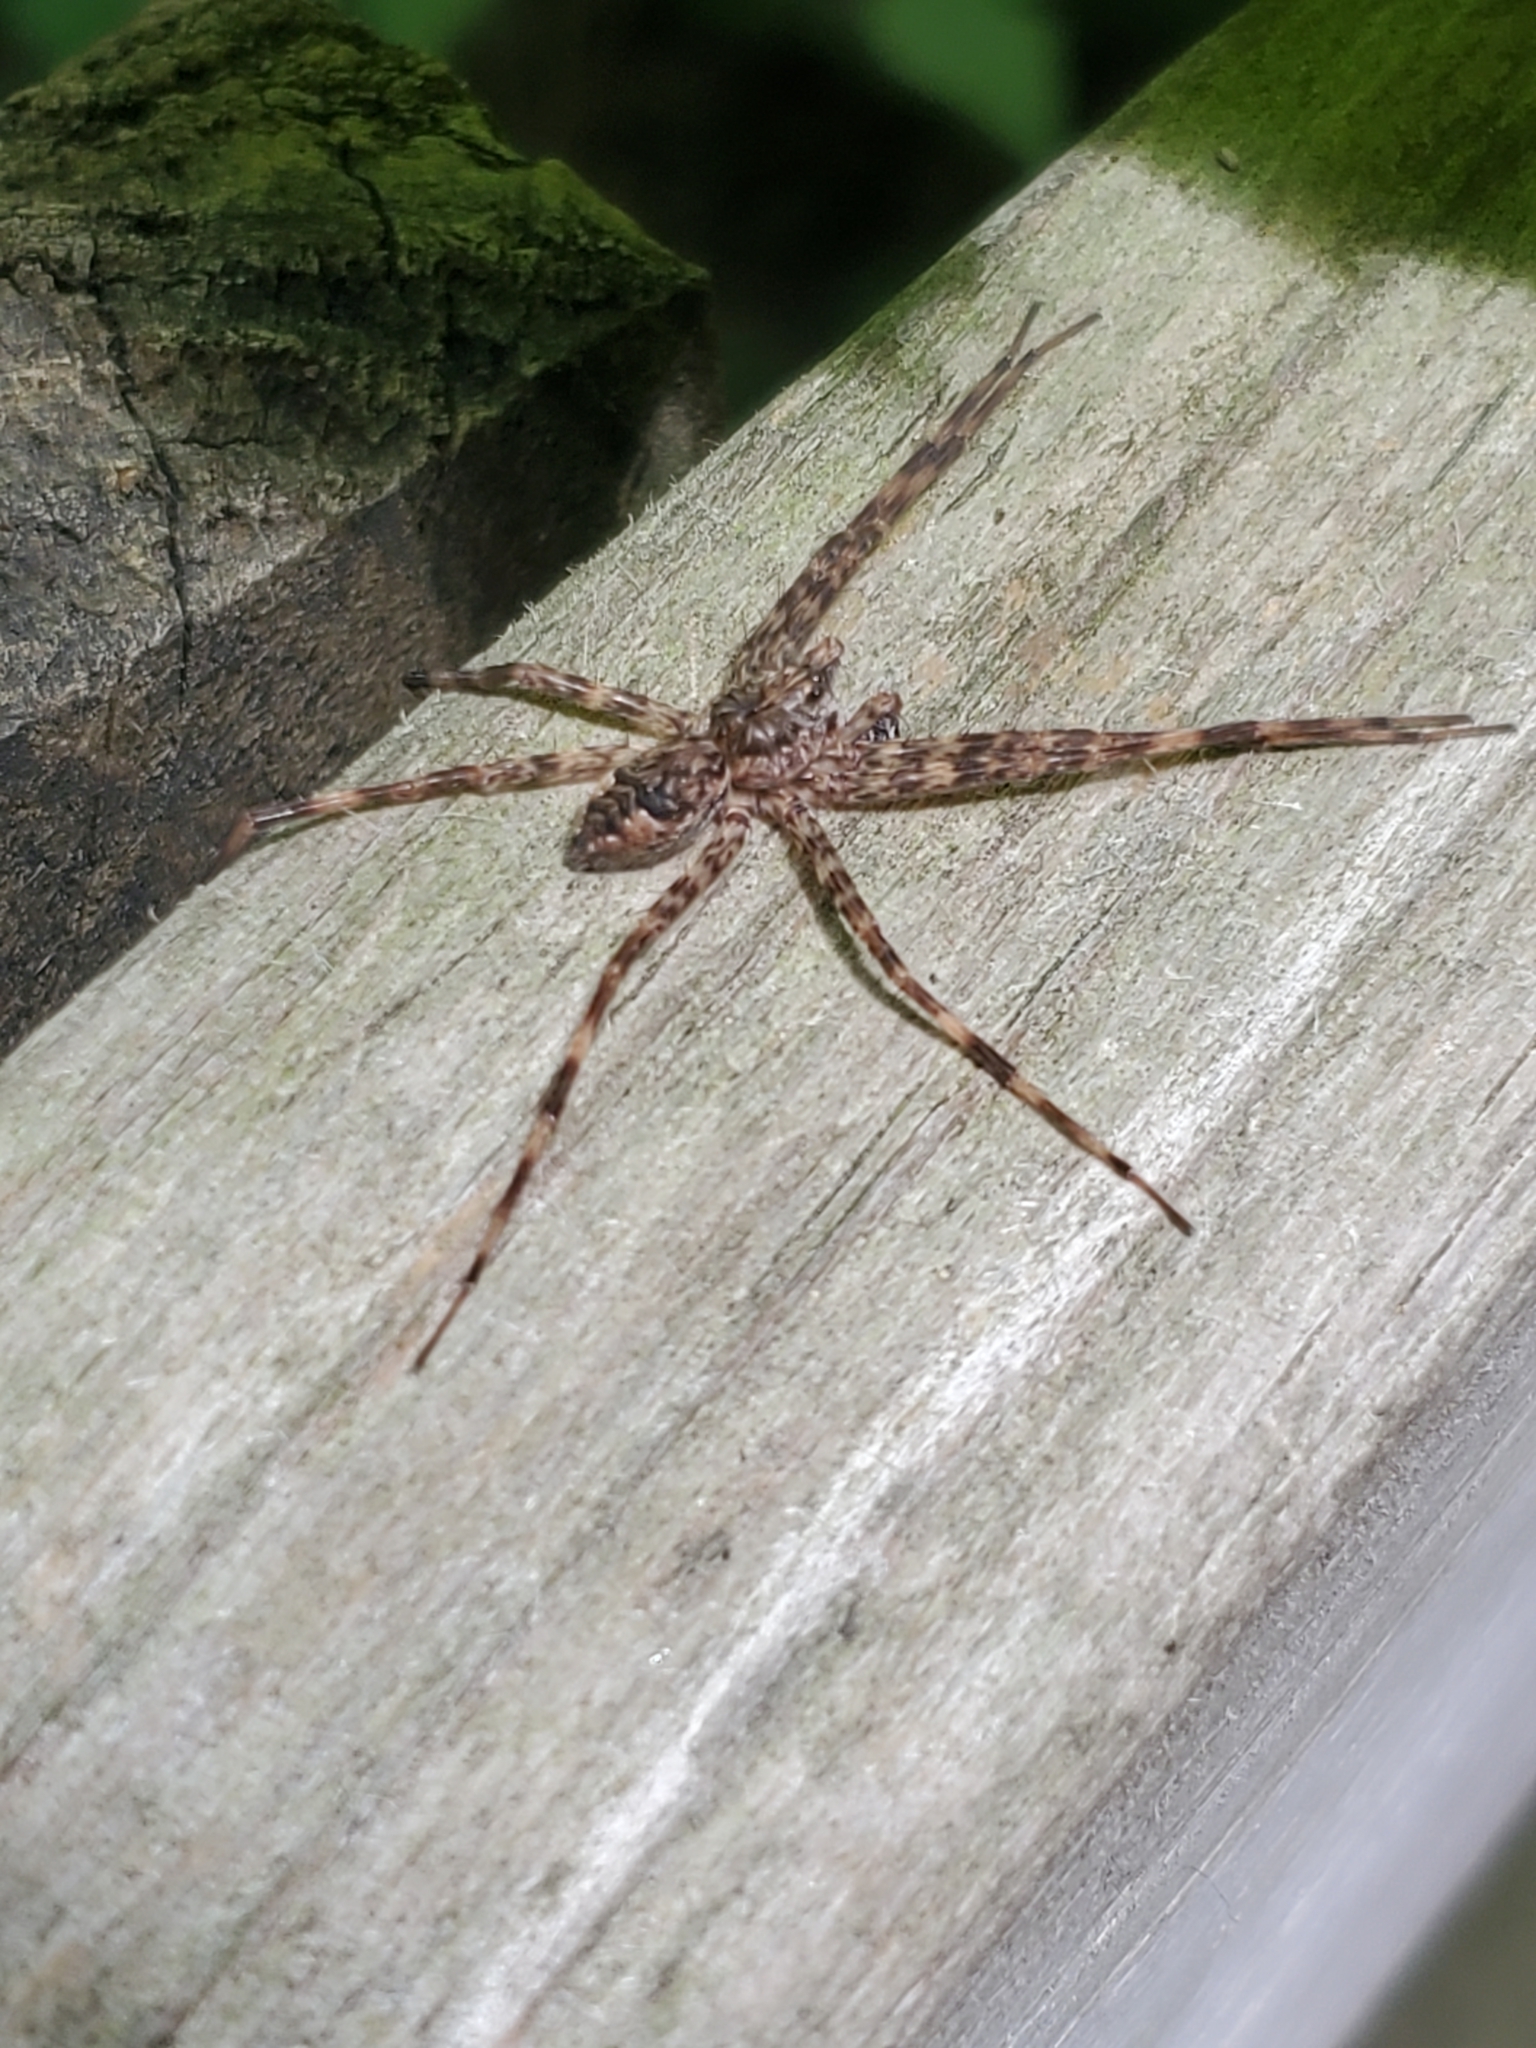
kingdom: Animalia
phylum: Arthropoda
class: Arachnida
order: Araneae
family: Pisauridae
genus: Dolomedes
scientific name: Dolomedes tenebrosus
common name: Dark fishing spider
